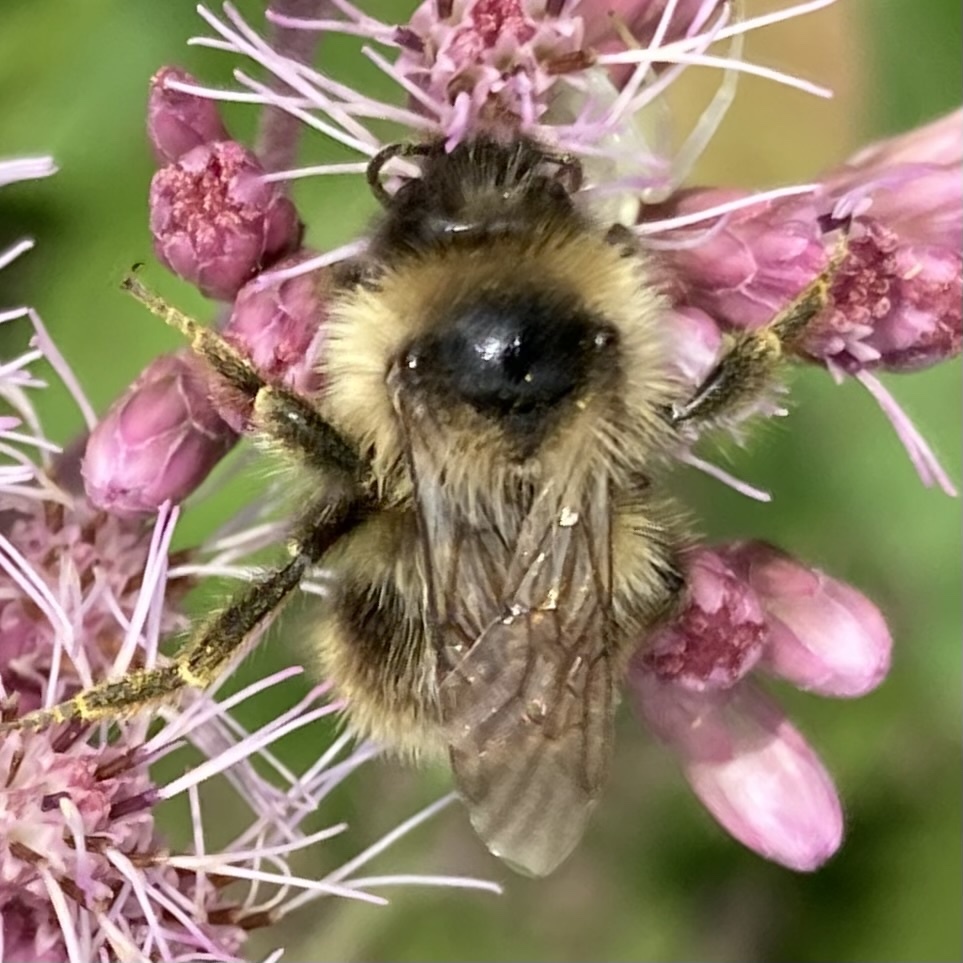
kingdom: Animalia
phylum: Arthropoda
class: Insecta
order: Hymenoptera
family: Apidae
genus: Bombus
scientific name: Bombus flavidus
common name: Fernald cuckoo bumble bee
